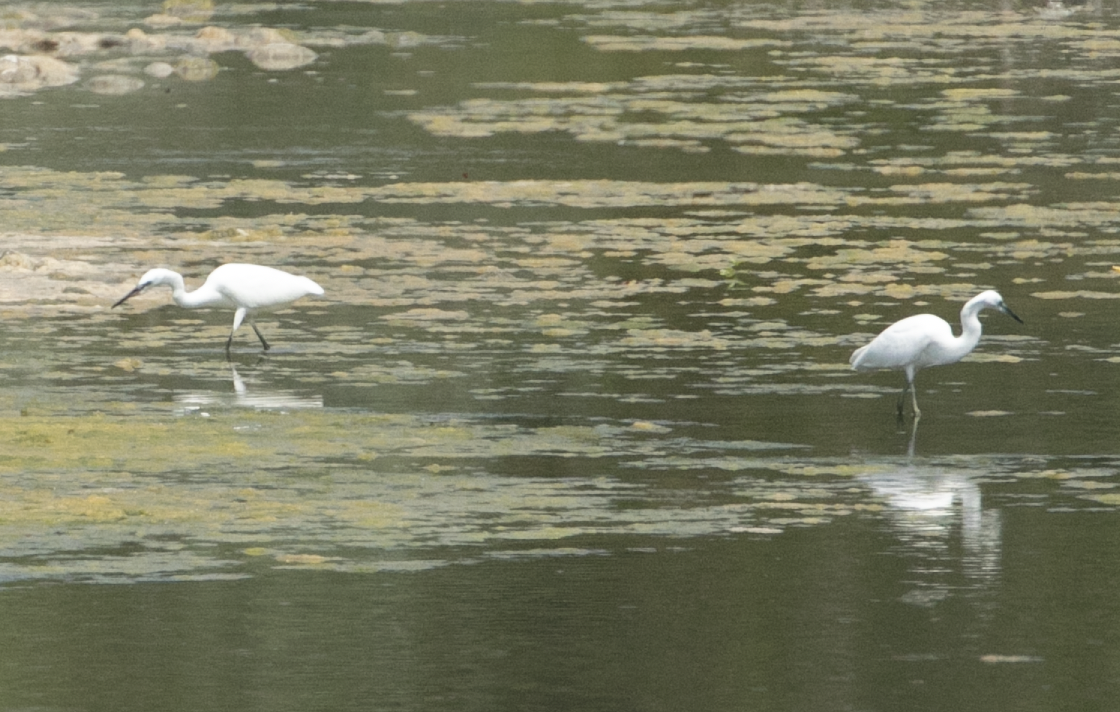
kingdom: Animalia
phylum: Chordata
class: Aves
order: Pelecaniformes
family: Ardeidae
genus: Egretta
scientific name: Egretta garzetta
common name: Little egret
